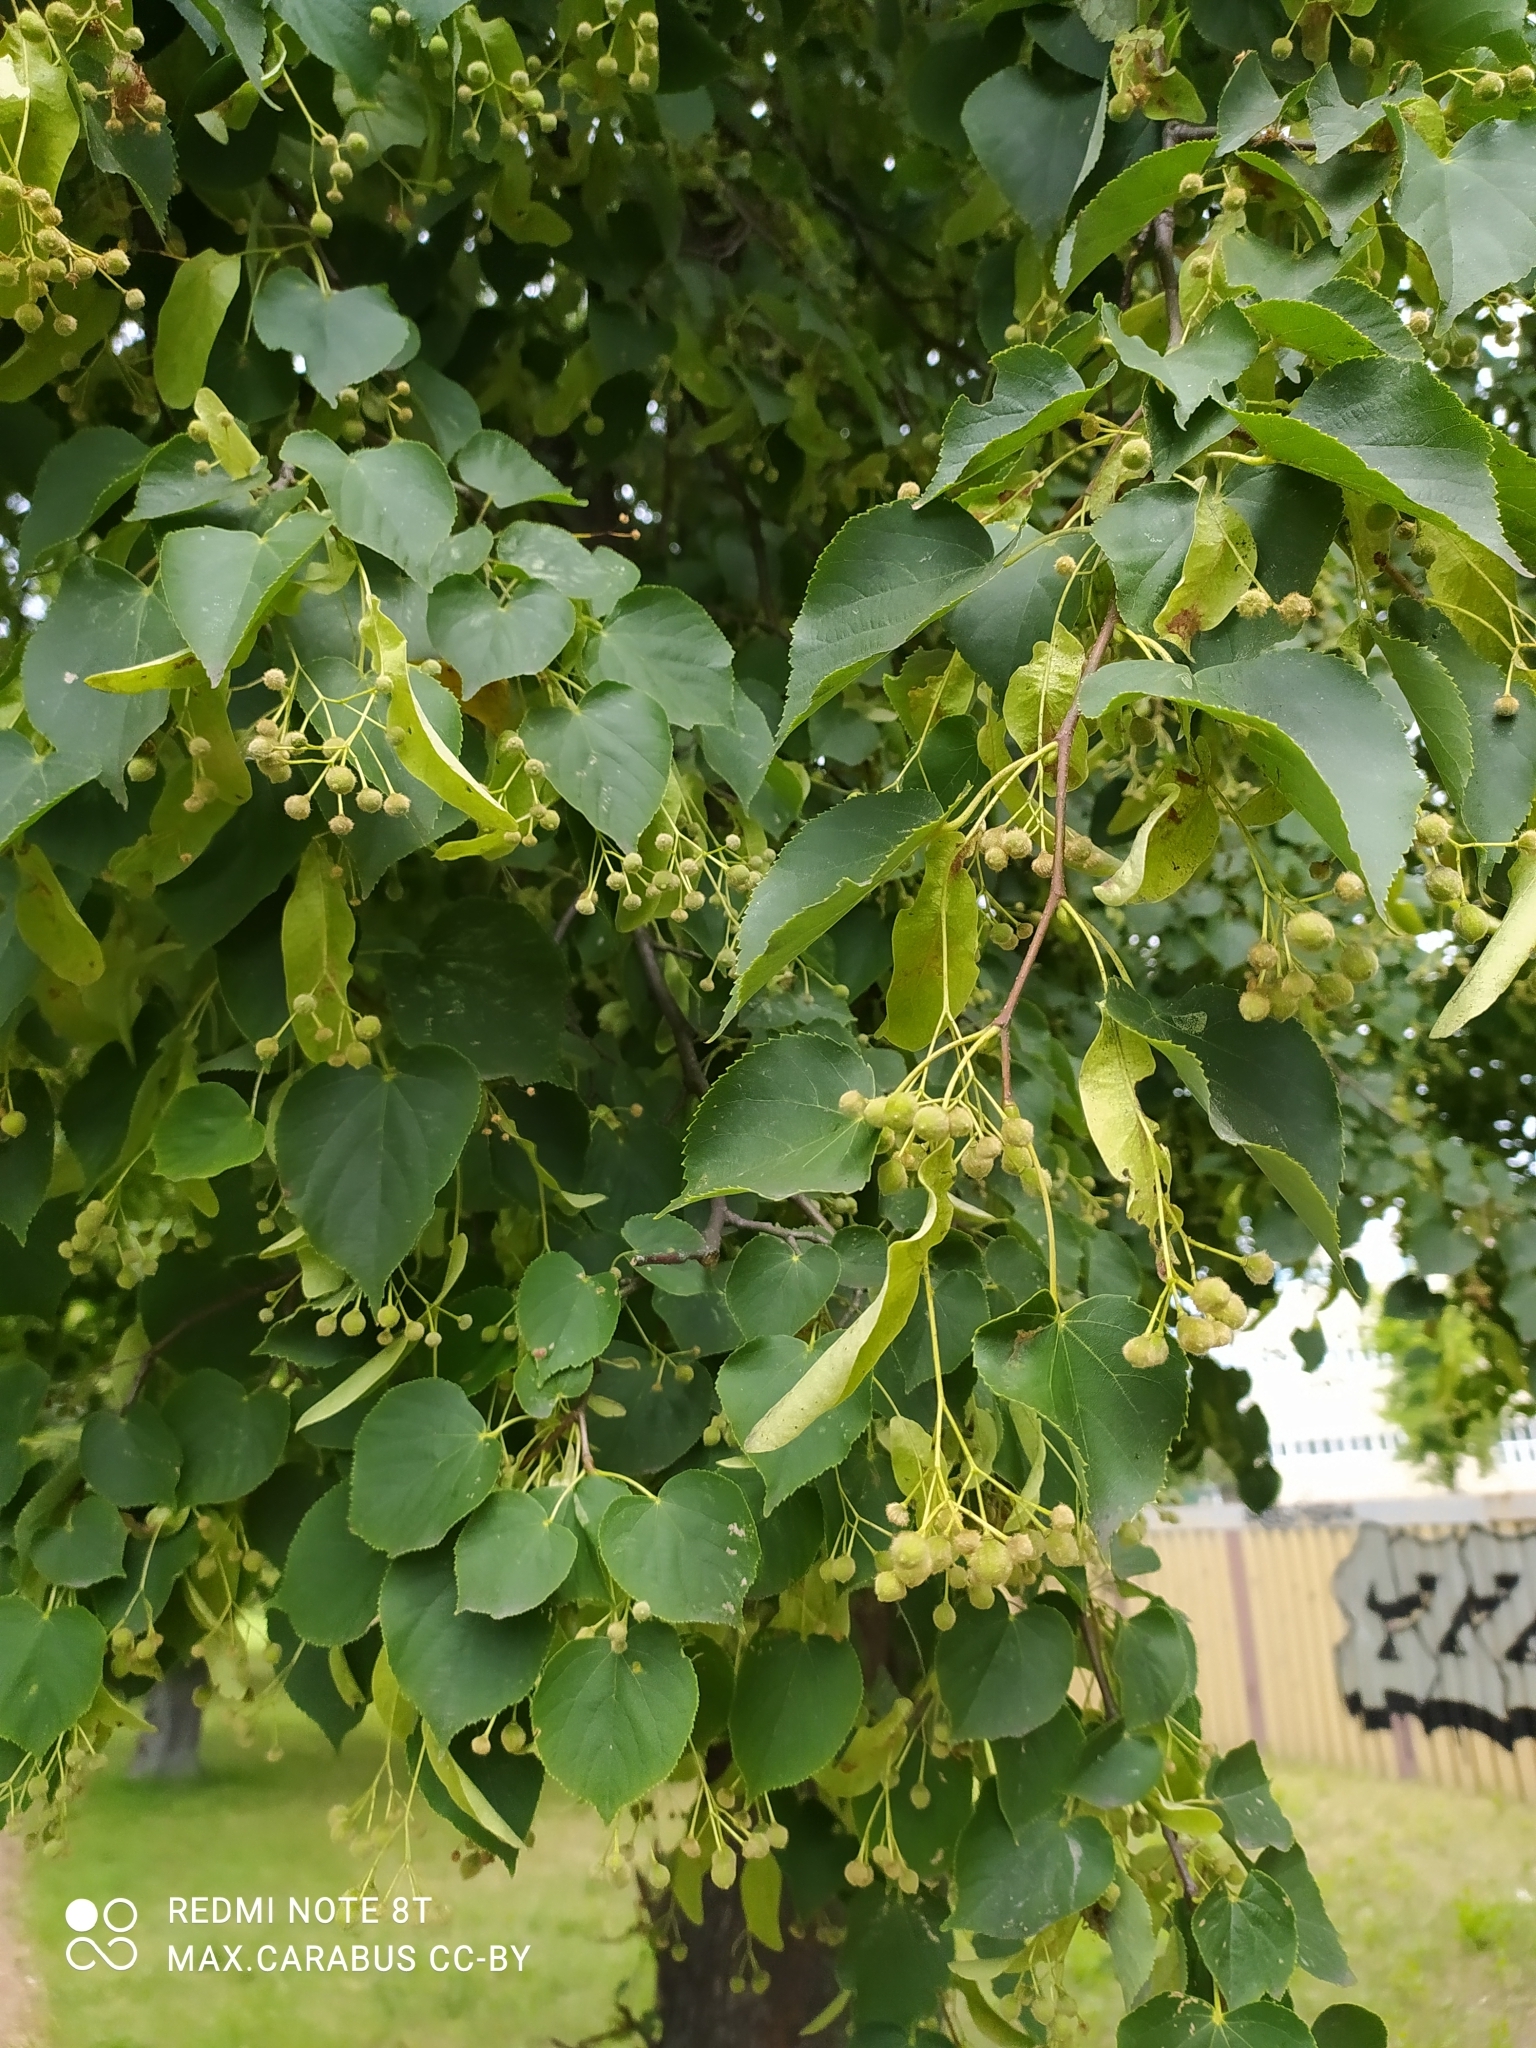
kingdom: Plantae
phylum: Tracheophyta
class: Magnoliopsida
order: Malvales
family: Malvaceae
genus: Tilia
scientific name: Tilia cordata
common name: Small-leaved lime
